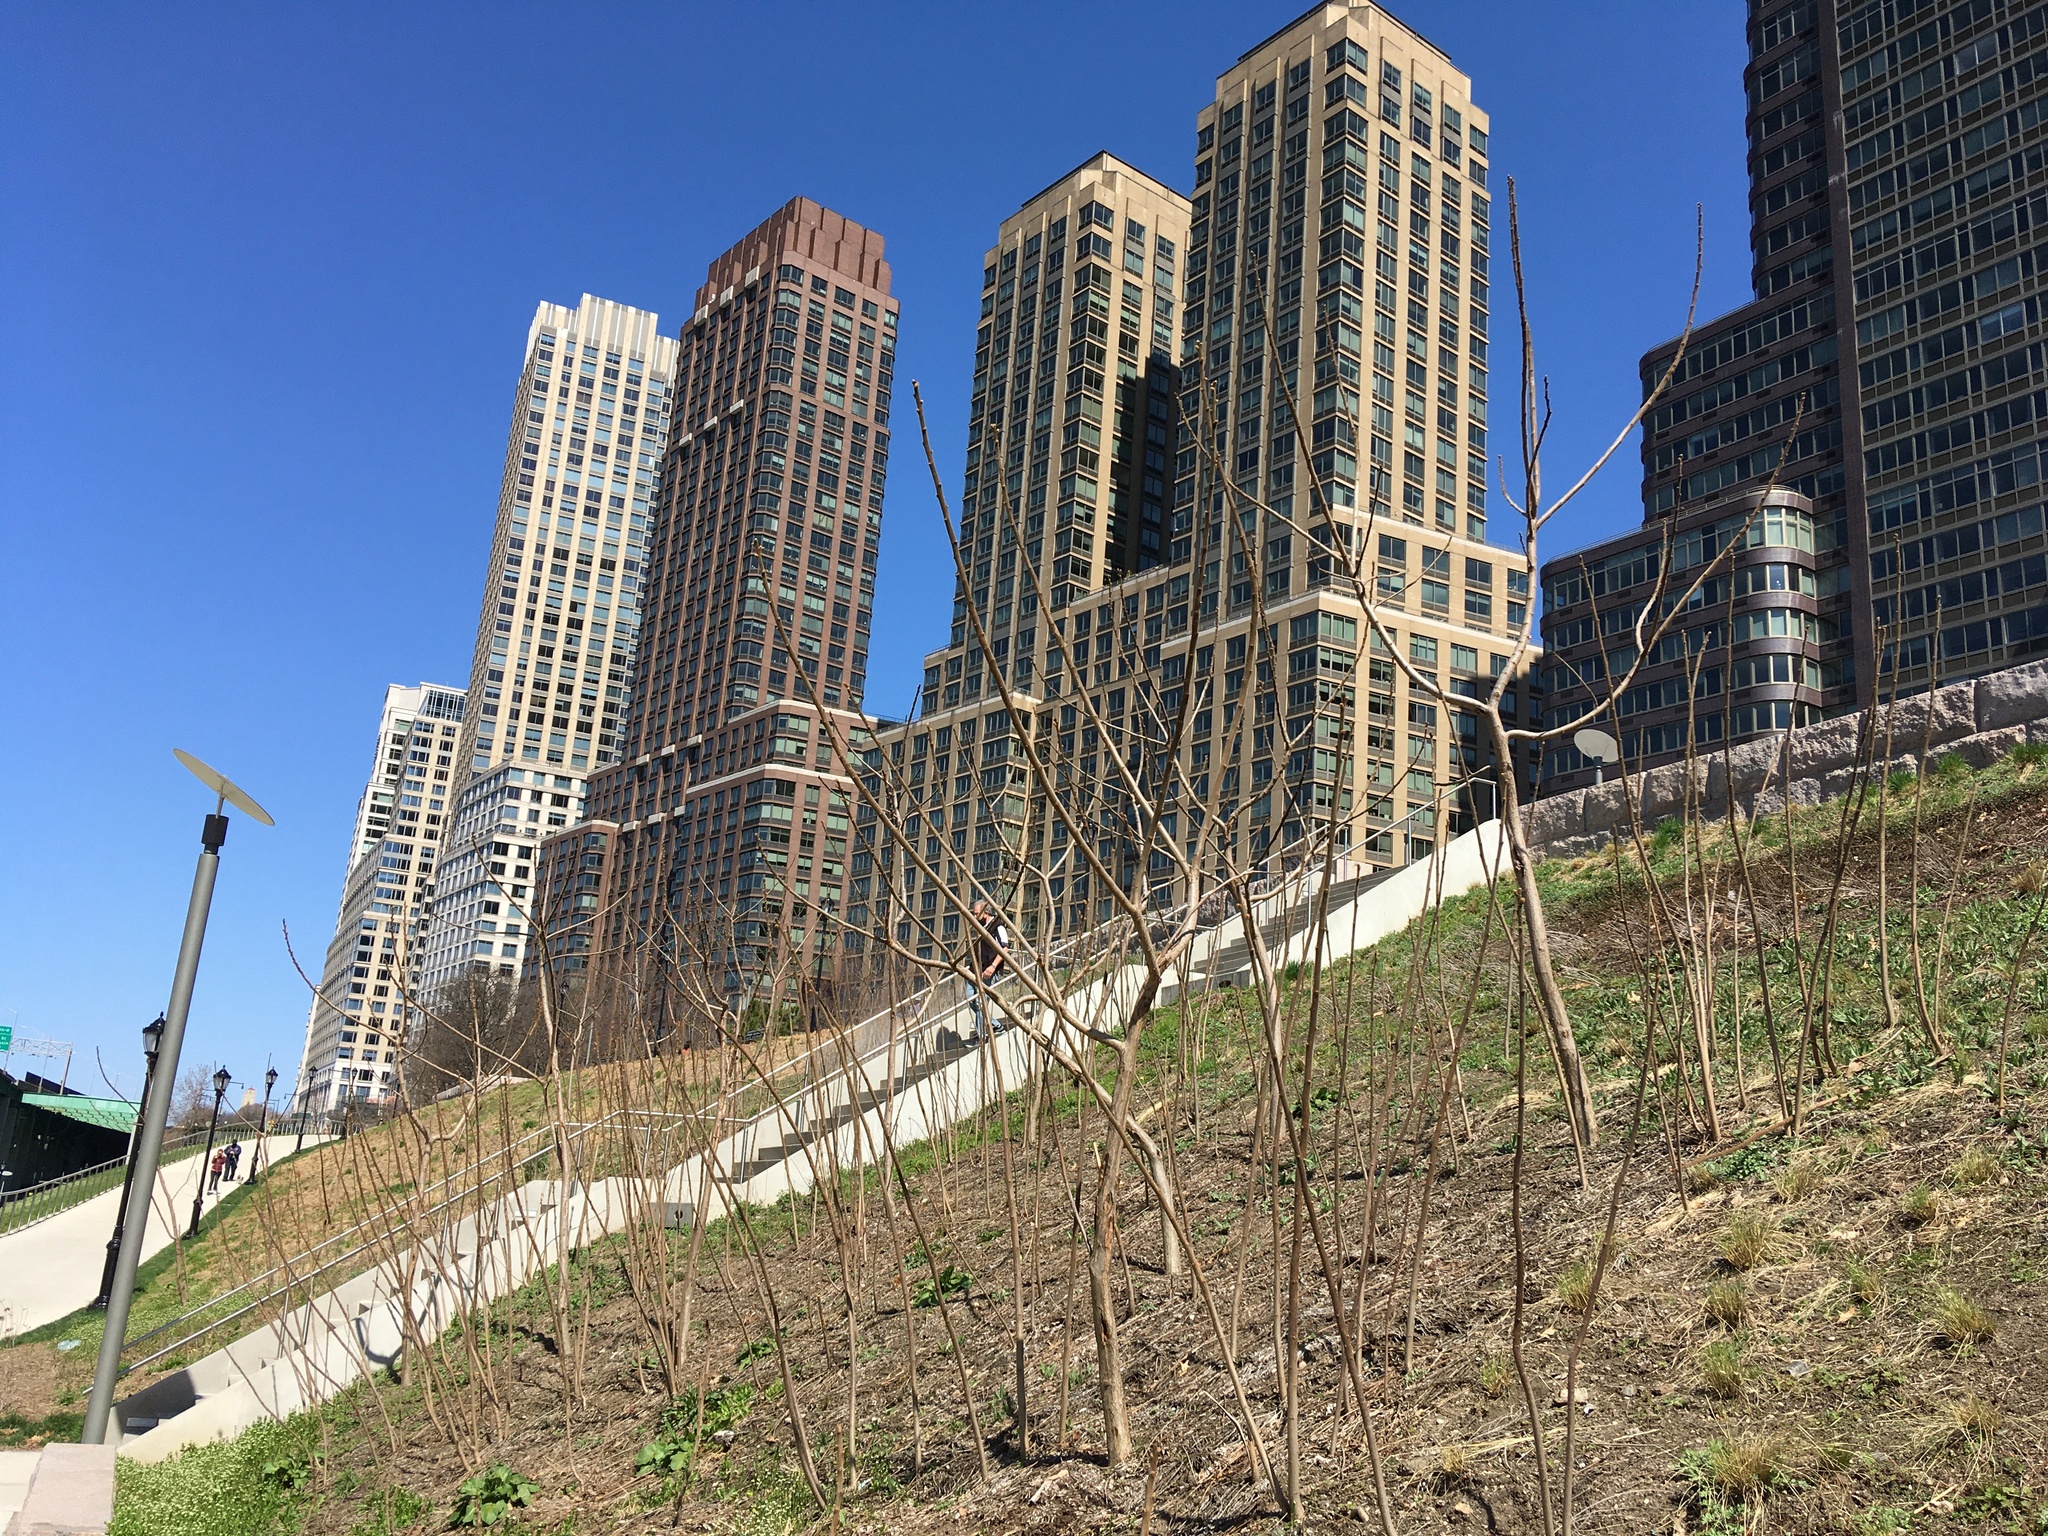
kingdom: Plantae
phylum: Tracheophyta
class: Magnoliopsida
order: Sapindales
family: Anacardiaceae
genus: Rhus
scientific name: Rhus typhina
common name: Staghorn sumac
